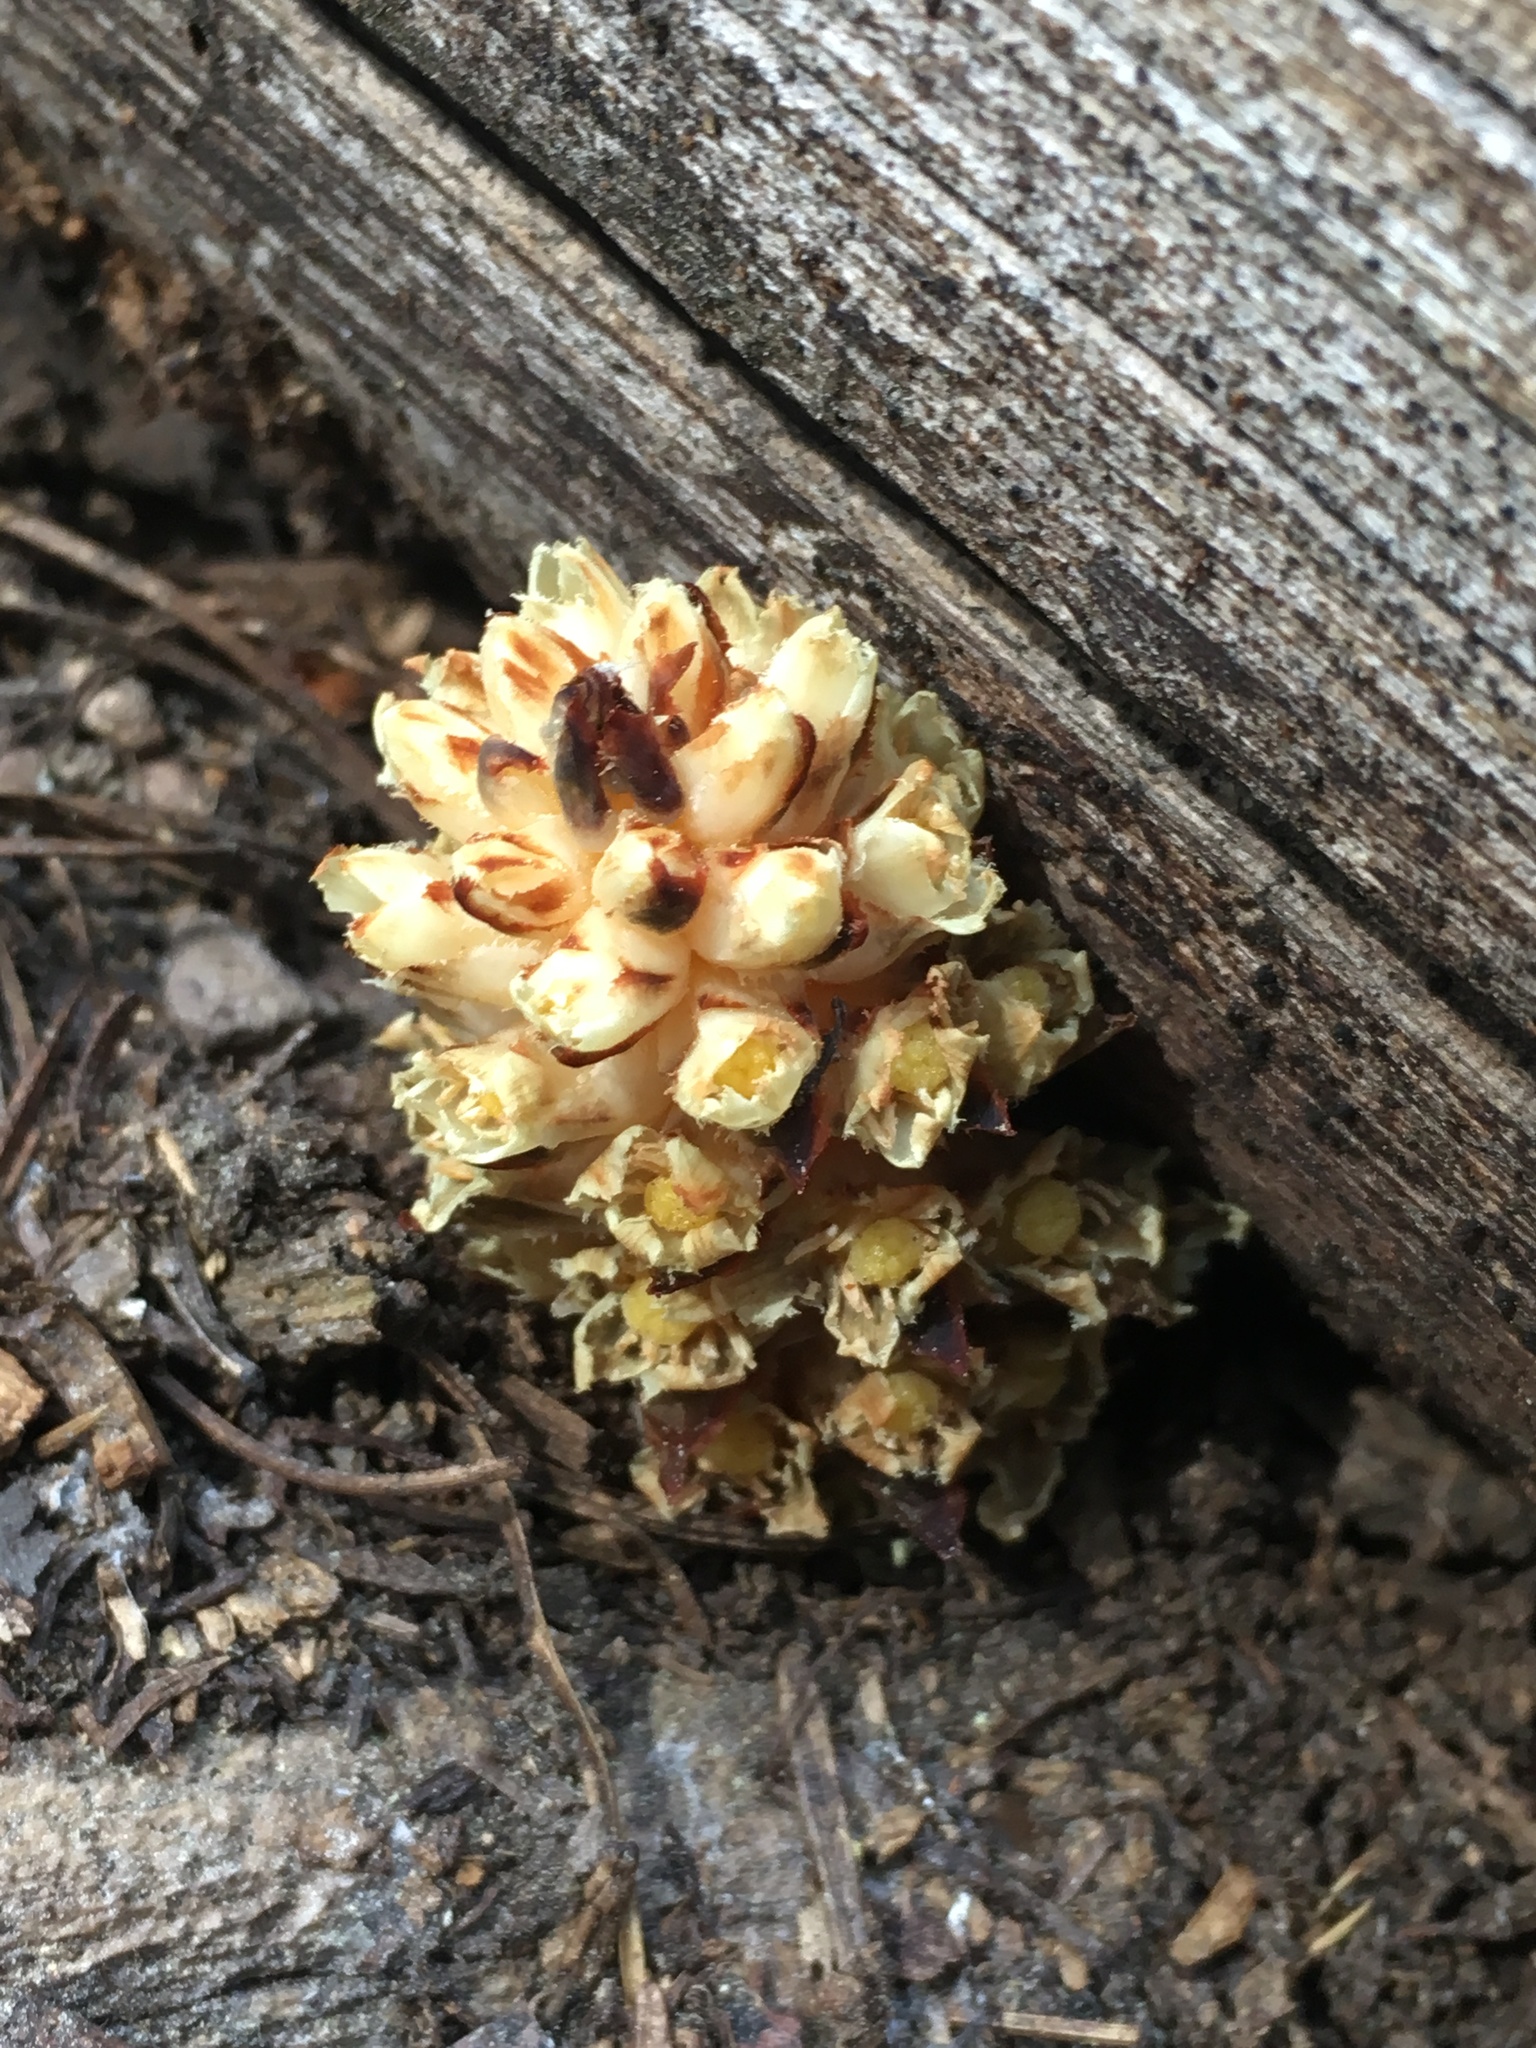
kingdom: Plantae
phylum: Tracheophyta
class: Magnoliopsida
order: Ericales
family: Ericaceae
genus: Pleuricospora
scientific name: Pleuricospora fimbriolata
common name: Fringed pinesap
